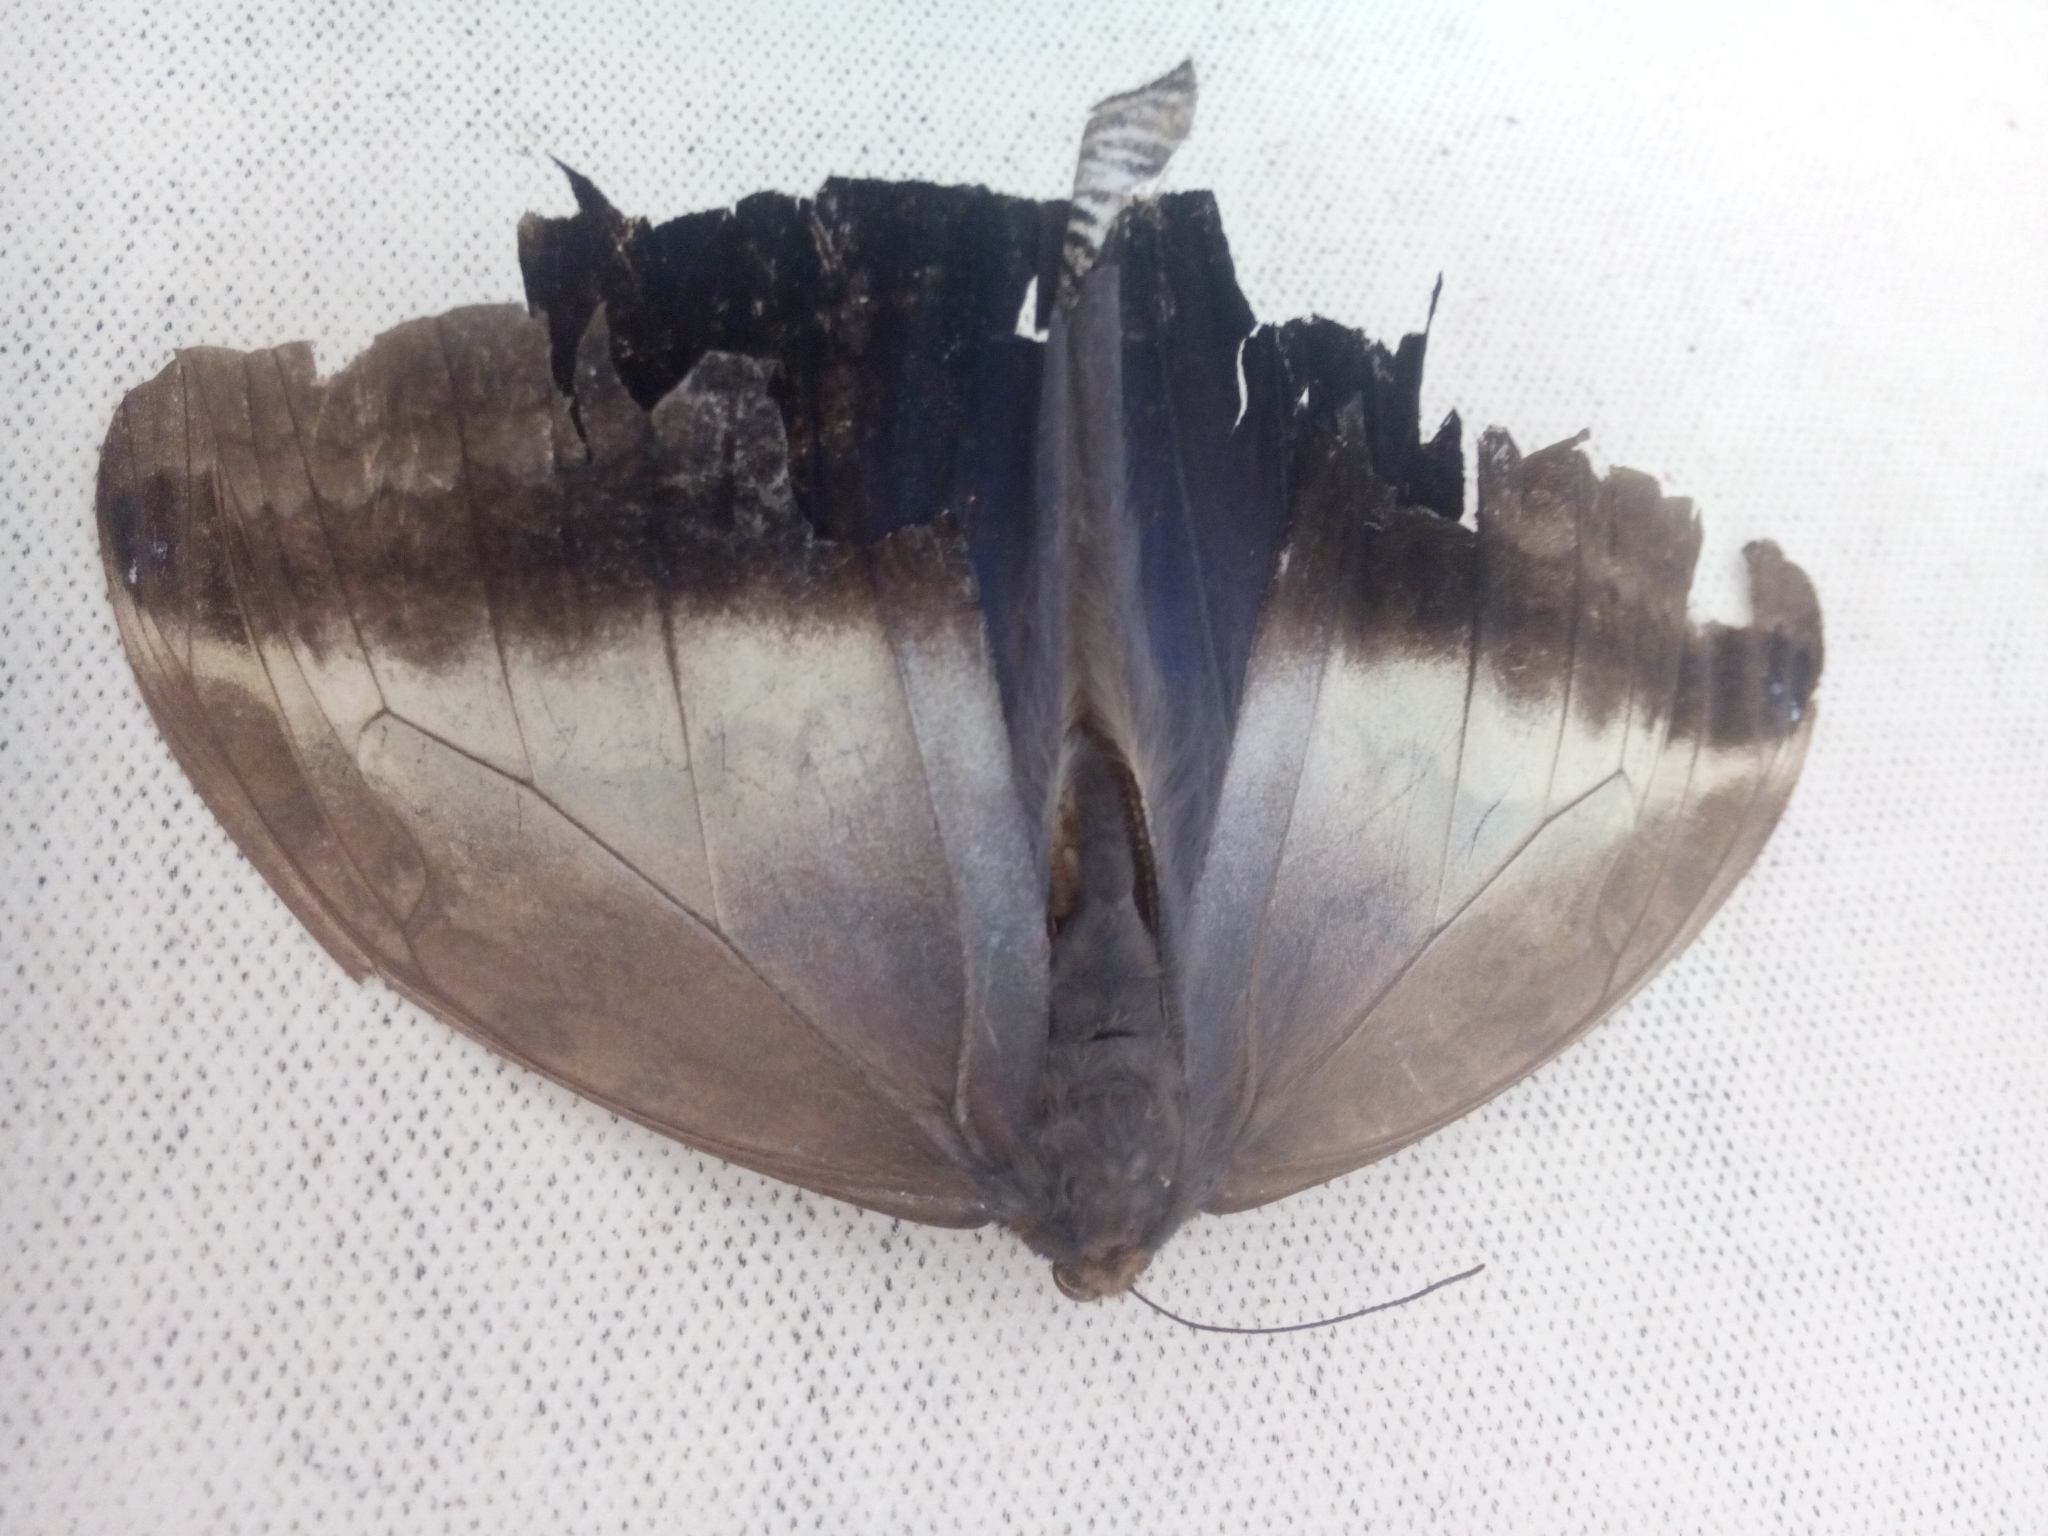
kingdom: Animalia
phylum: Arthropoda
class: Insecta
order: Lepidoptera
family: Nymphalidae
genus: Caligo
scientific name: Caligo oedipus
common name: Fruhstorfer's owl-butterfly
